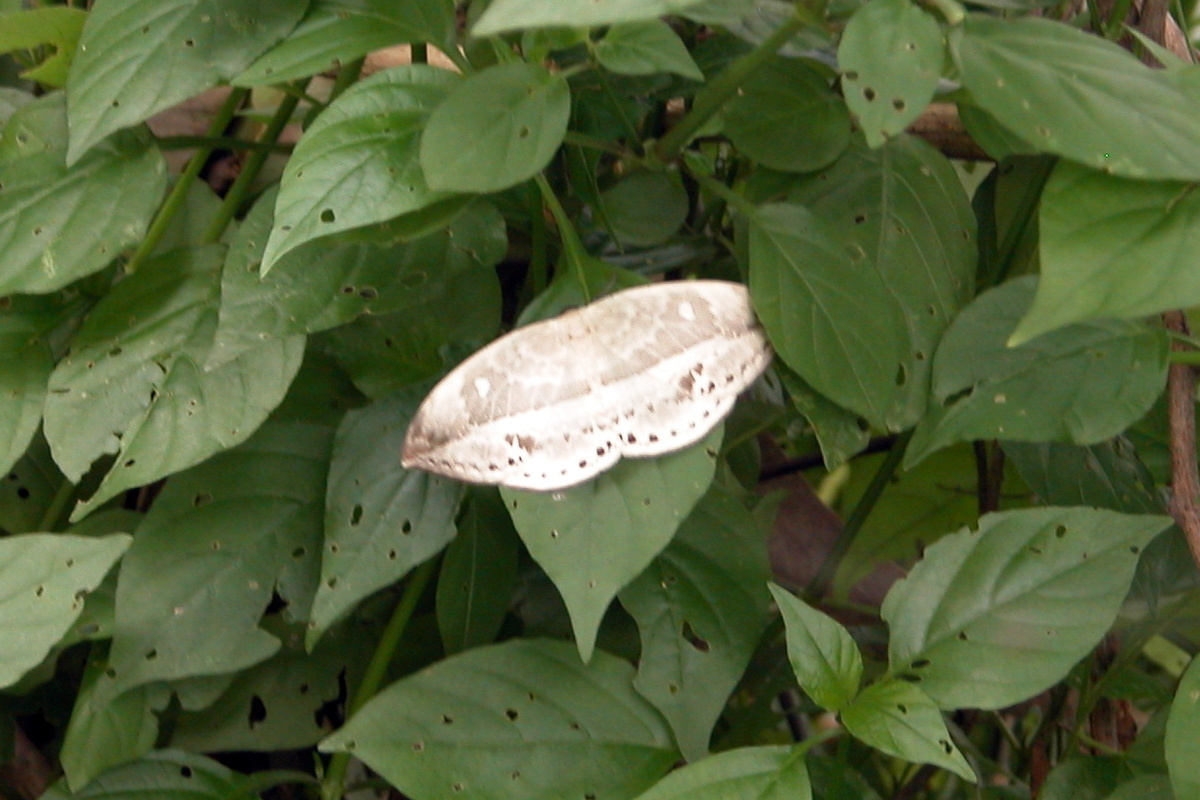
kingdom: Animalia
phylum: Arthropoda
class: Insecta
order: Lepidoptera
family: Drepanidae
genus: Cyclidia
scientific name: Cyclidia substigmaria
